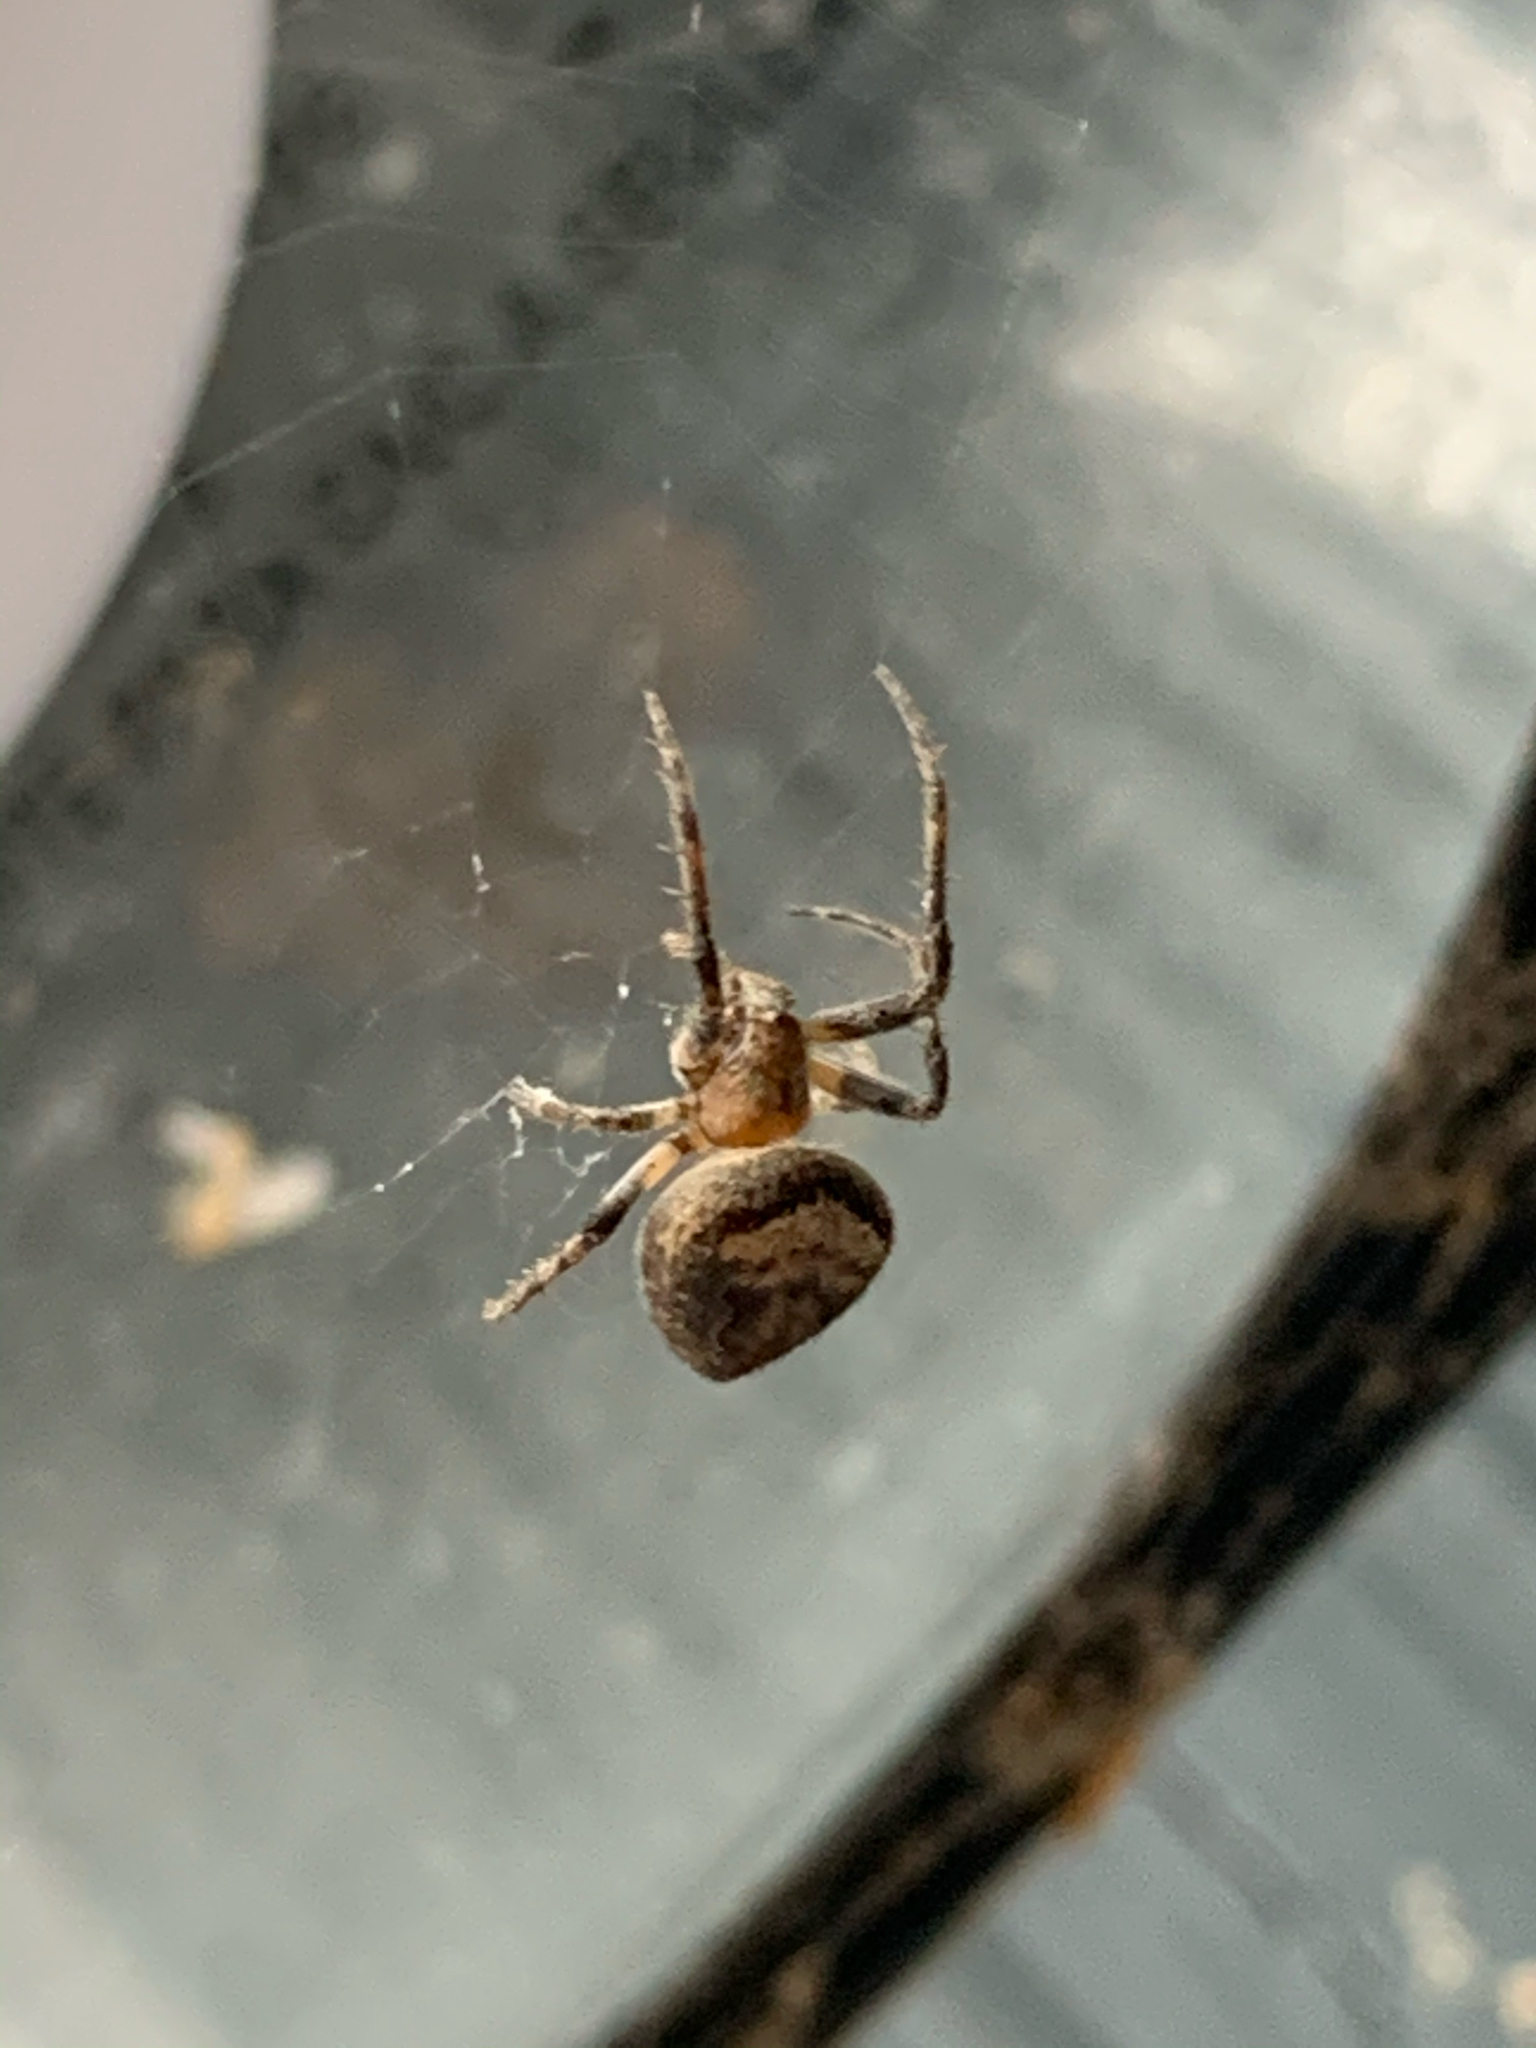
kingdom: Animalia
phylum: Arthropoda
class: Arachnida
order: Araneae
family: Araneidae
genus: Eustala
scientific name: Eustala
